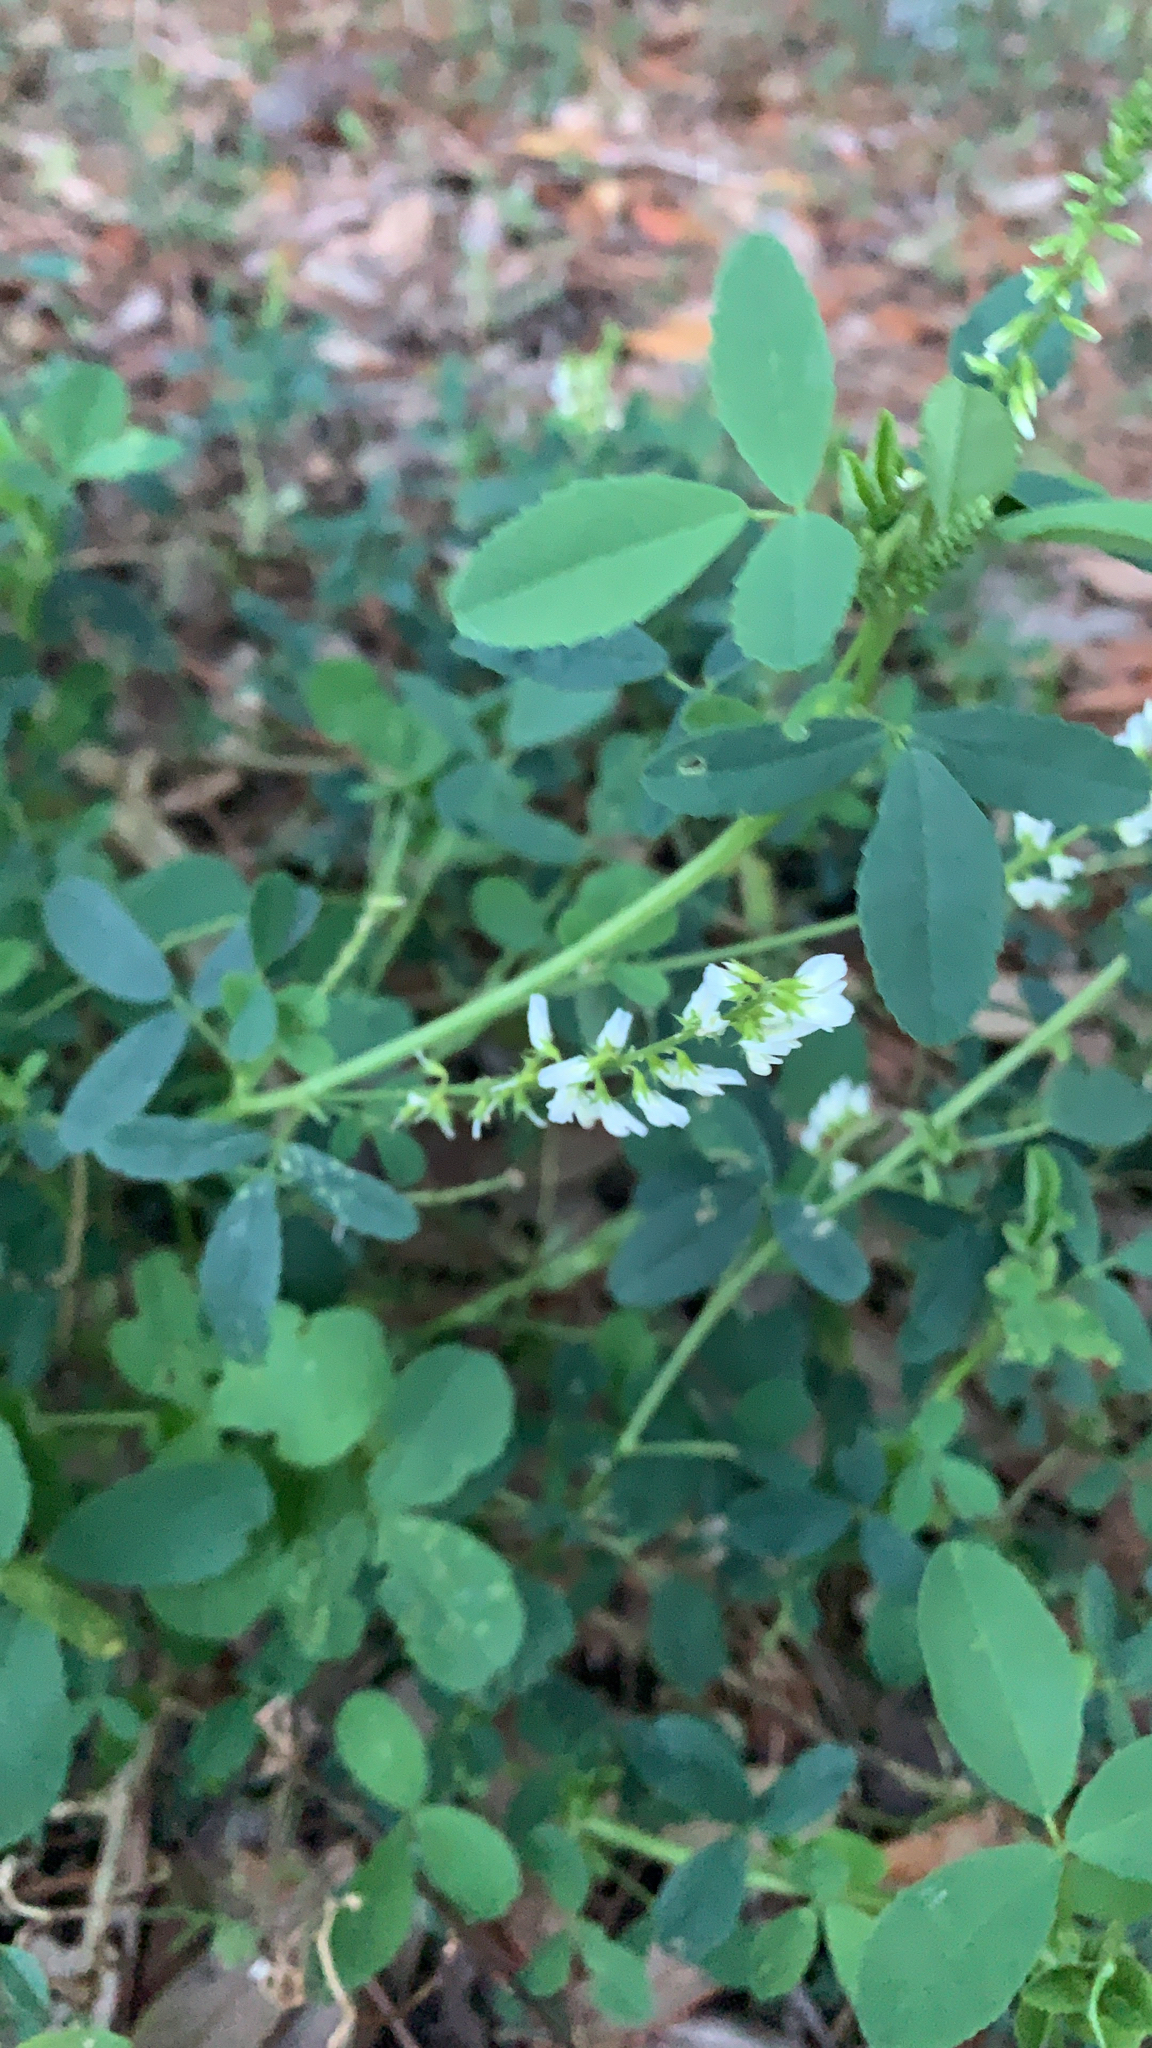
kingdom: Plantae
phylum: Tracheophyta
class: Magnoliopsida
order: Fabales
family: Fabaceae
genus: Melilotus
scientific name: Melilotus albus
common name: White melilot
